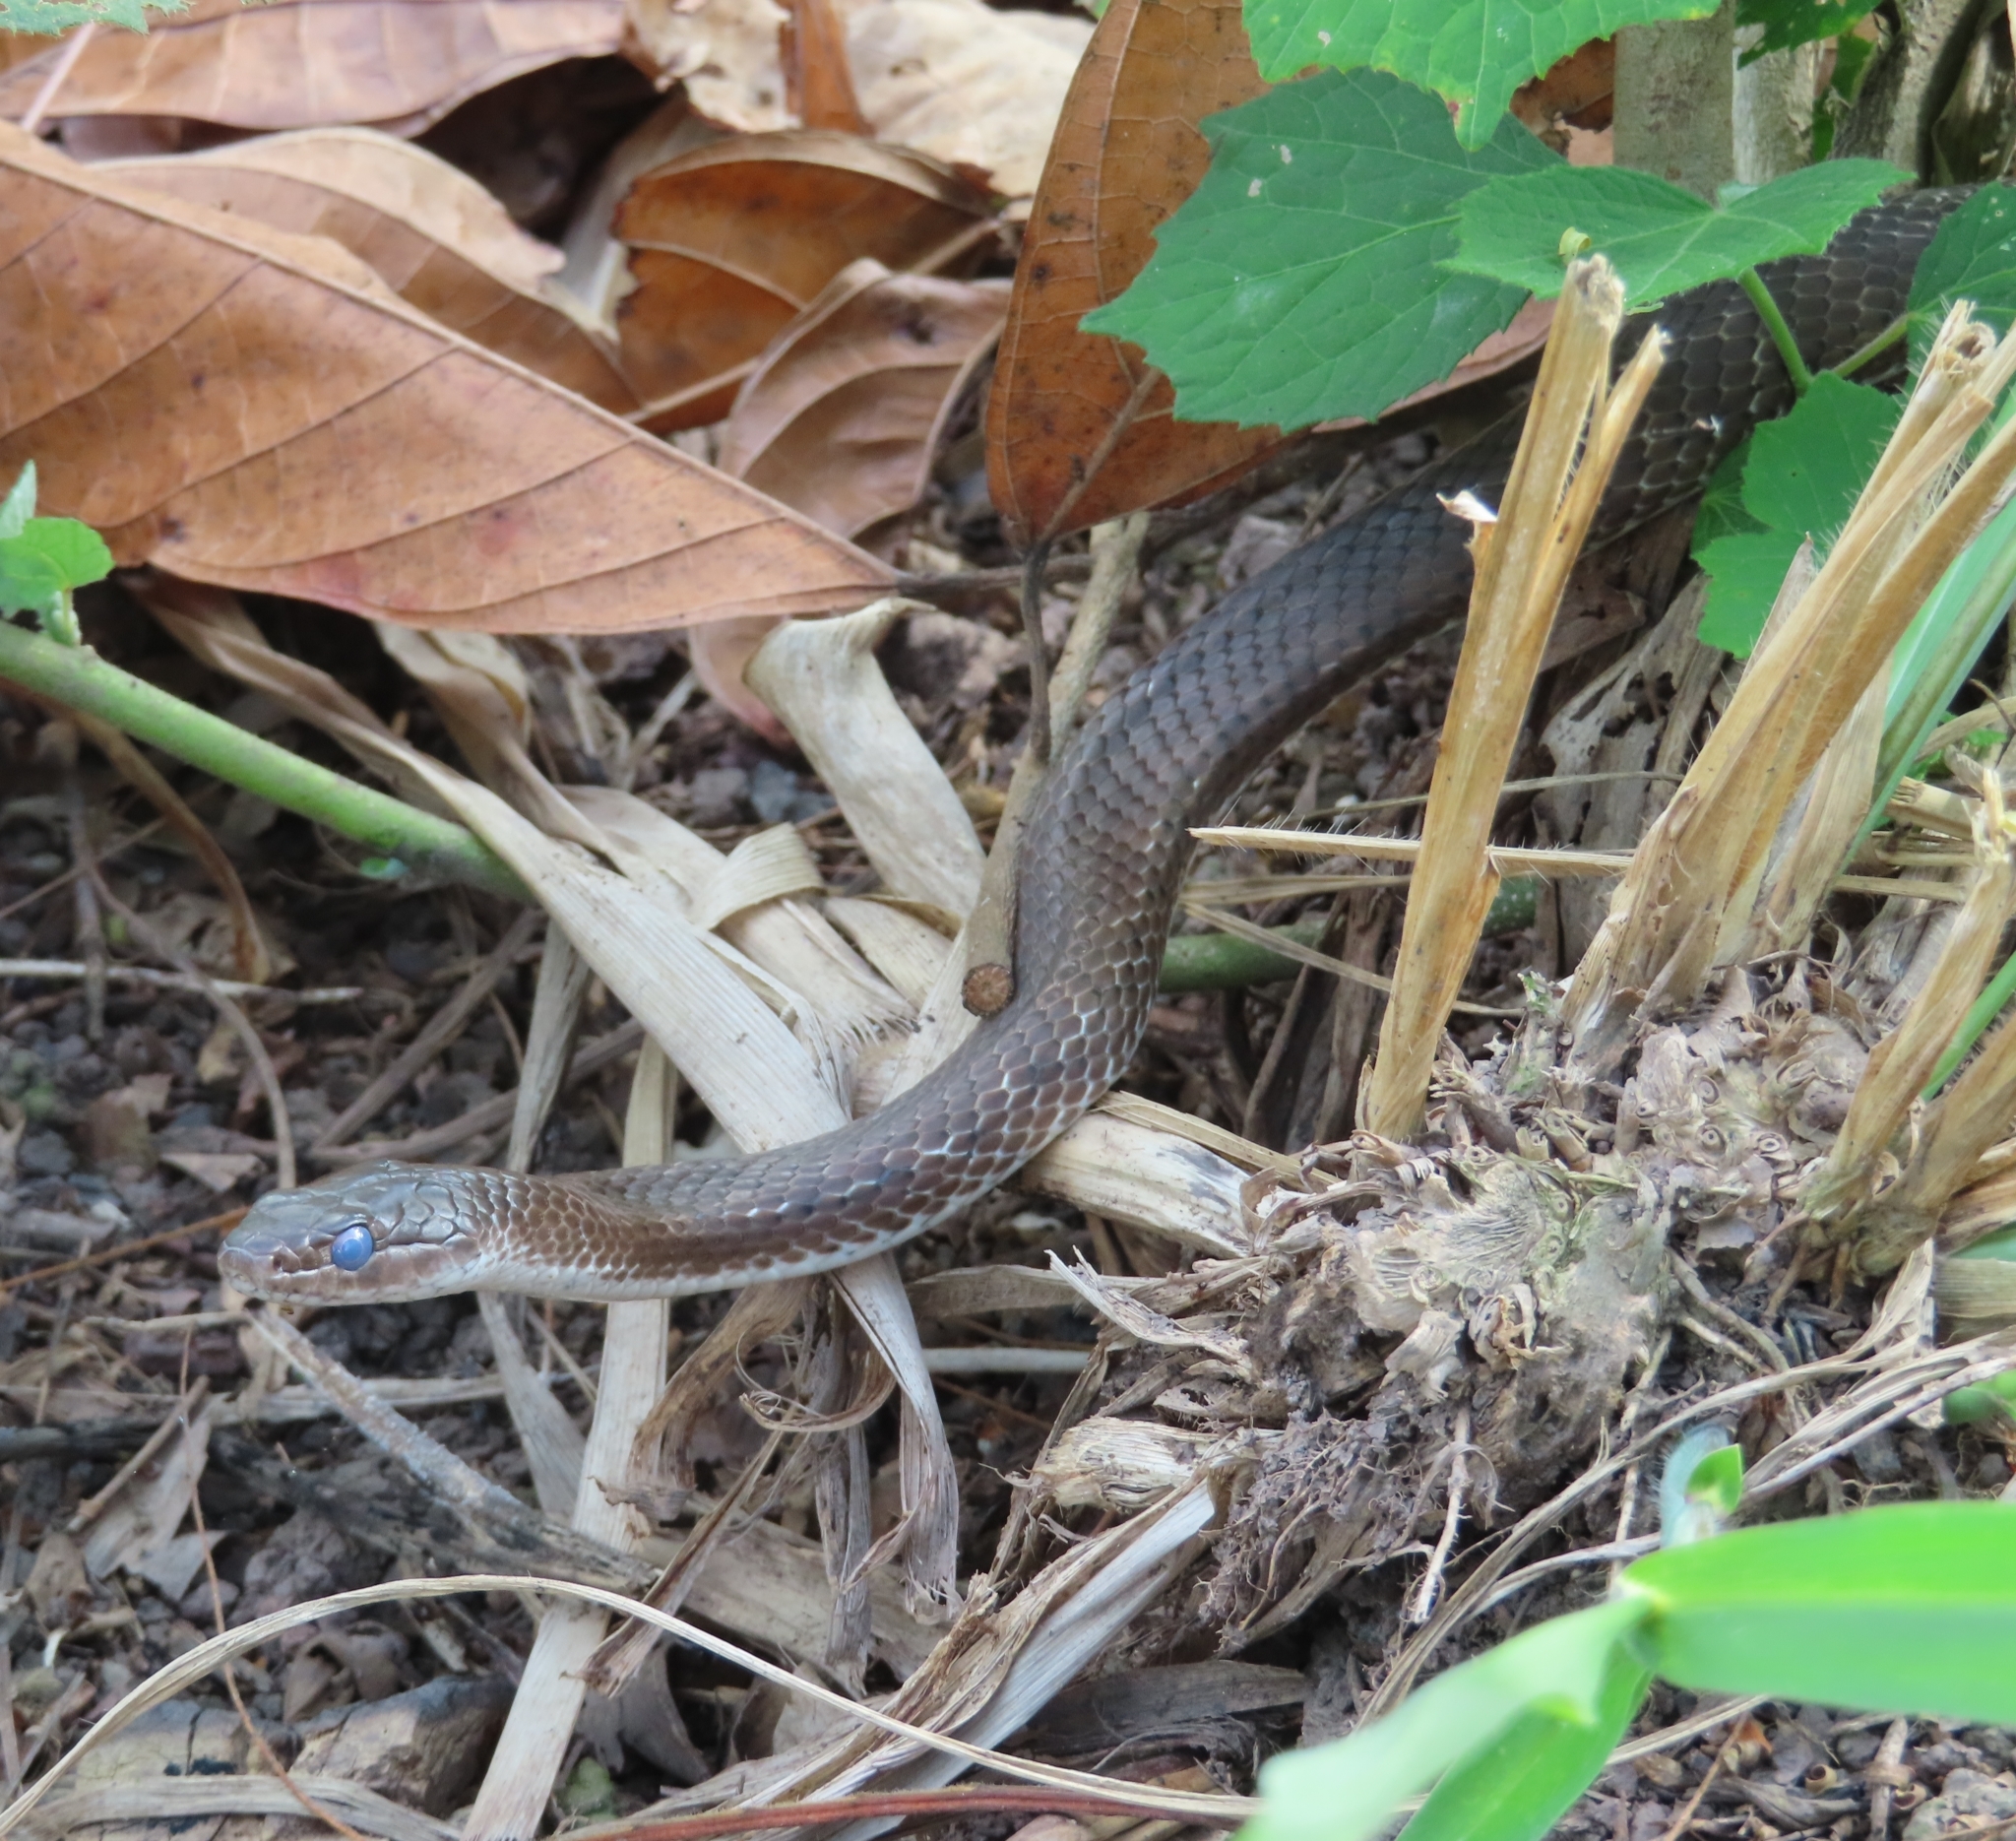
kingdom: Animalia
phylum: Chordata
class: Squamata
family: Colubridae
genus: Borikenophis
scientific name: Borikenophis portoricensis
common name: Puerto rican racer
